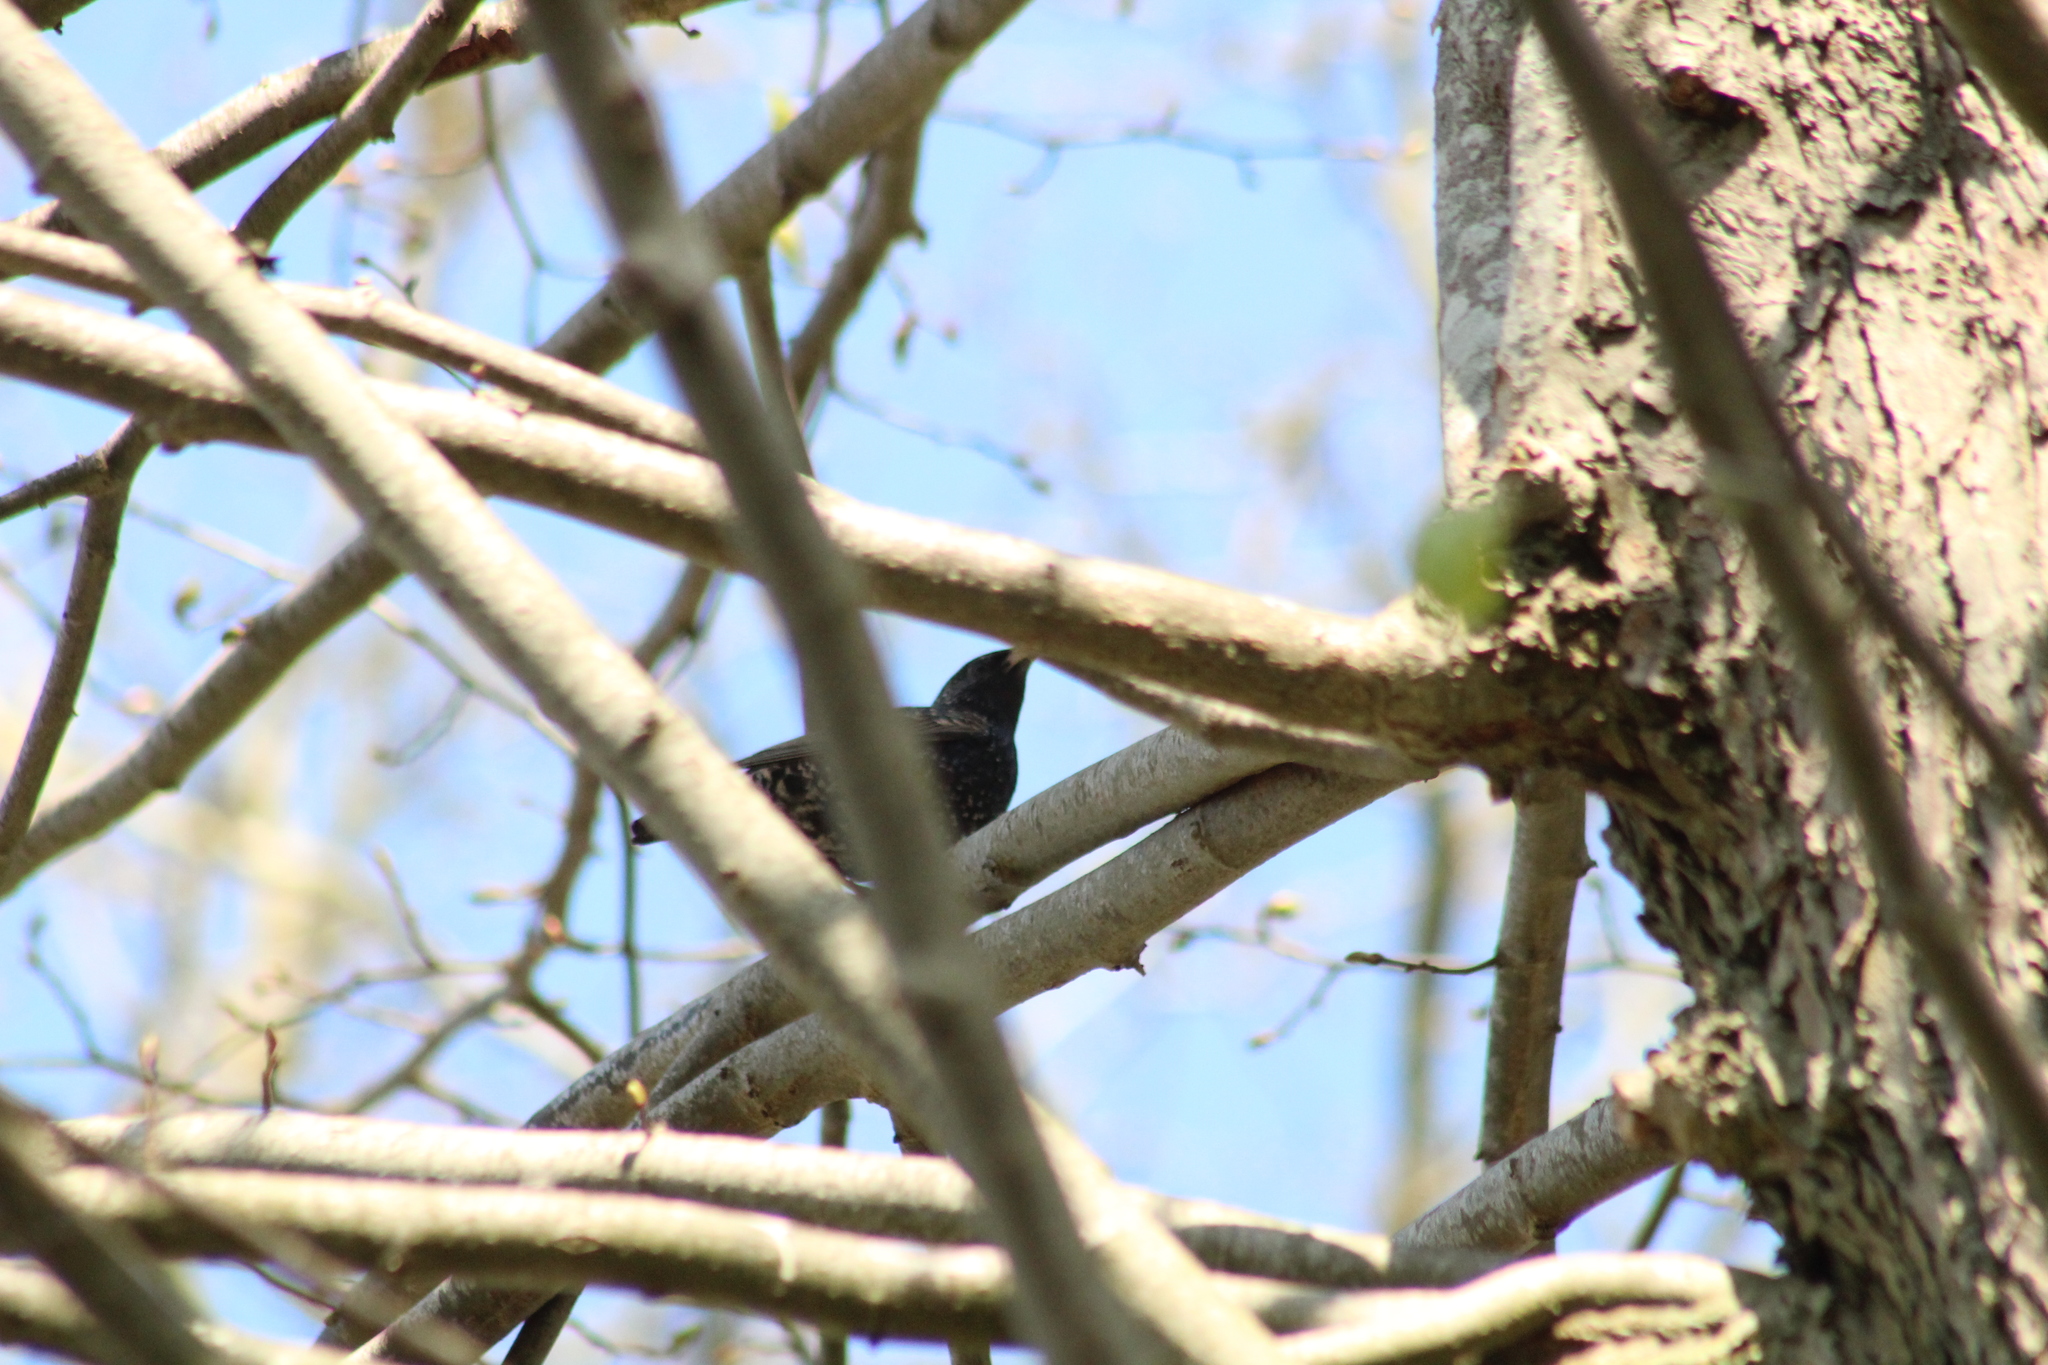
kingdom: Animalia
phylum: Chordata
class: Aves
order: Passeriformes
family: Sturnidae
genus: Sturnus
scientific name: Sturnus vulgaris
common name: Common starling
